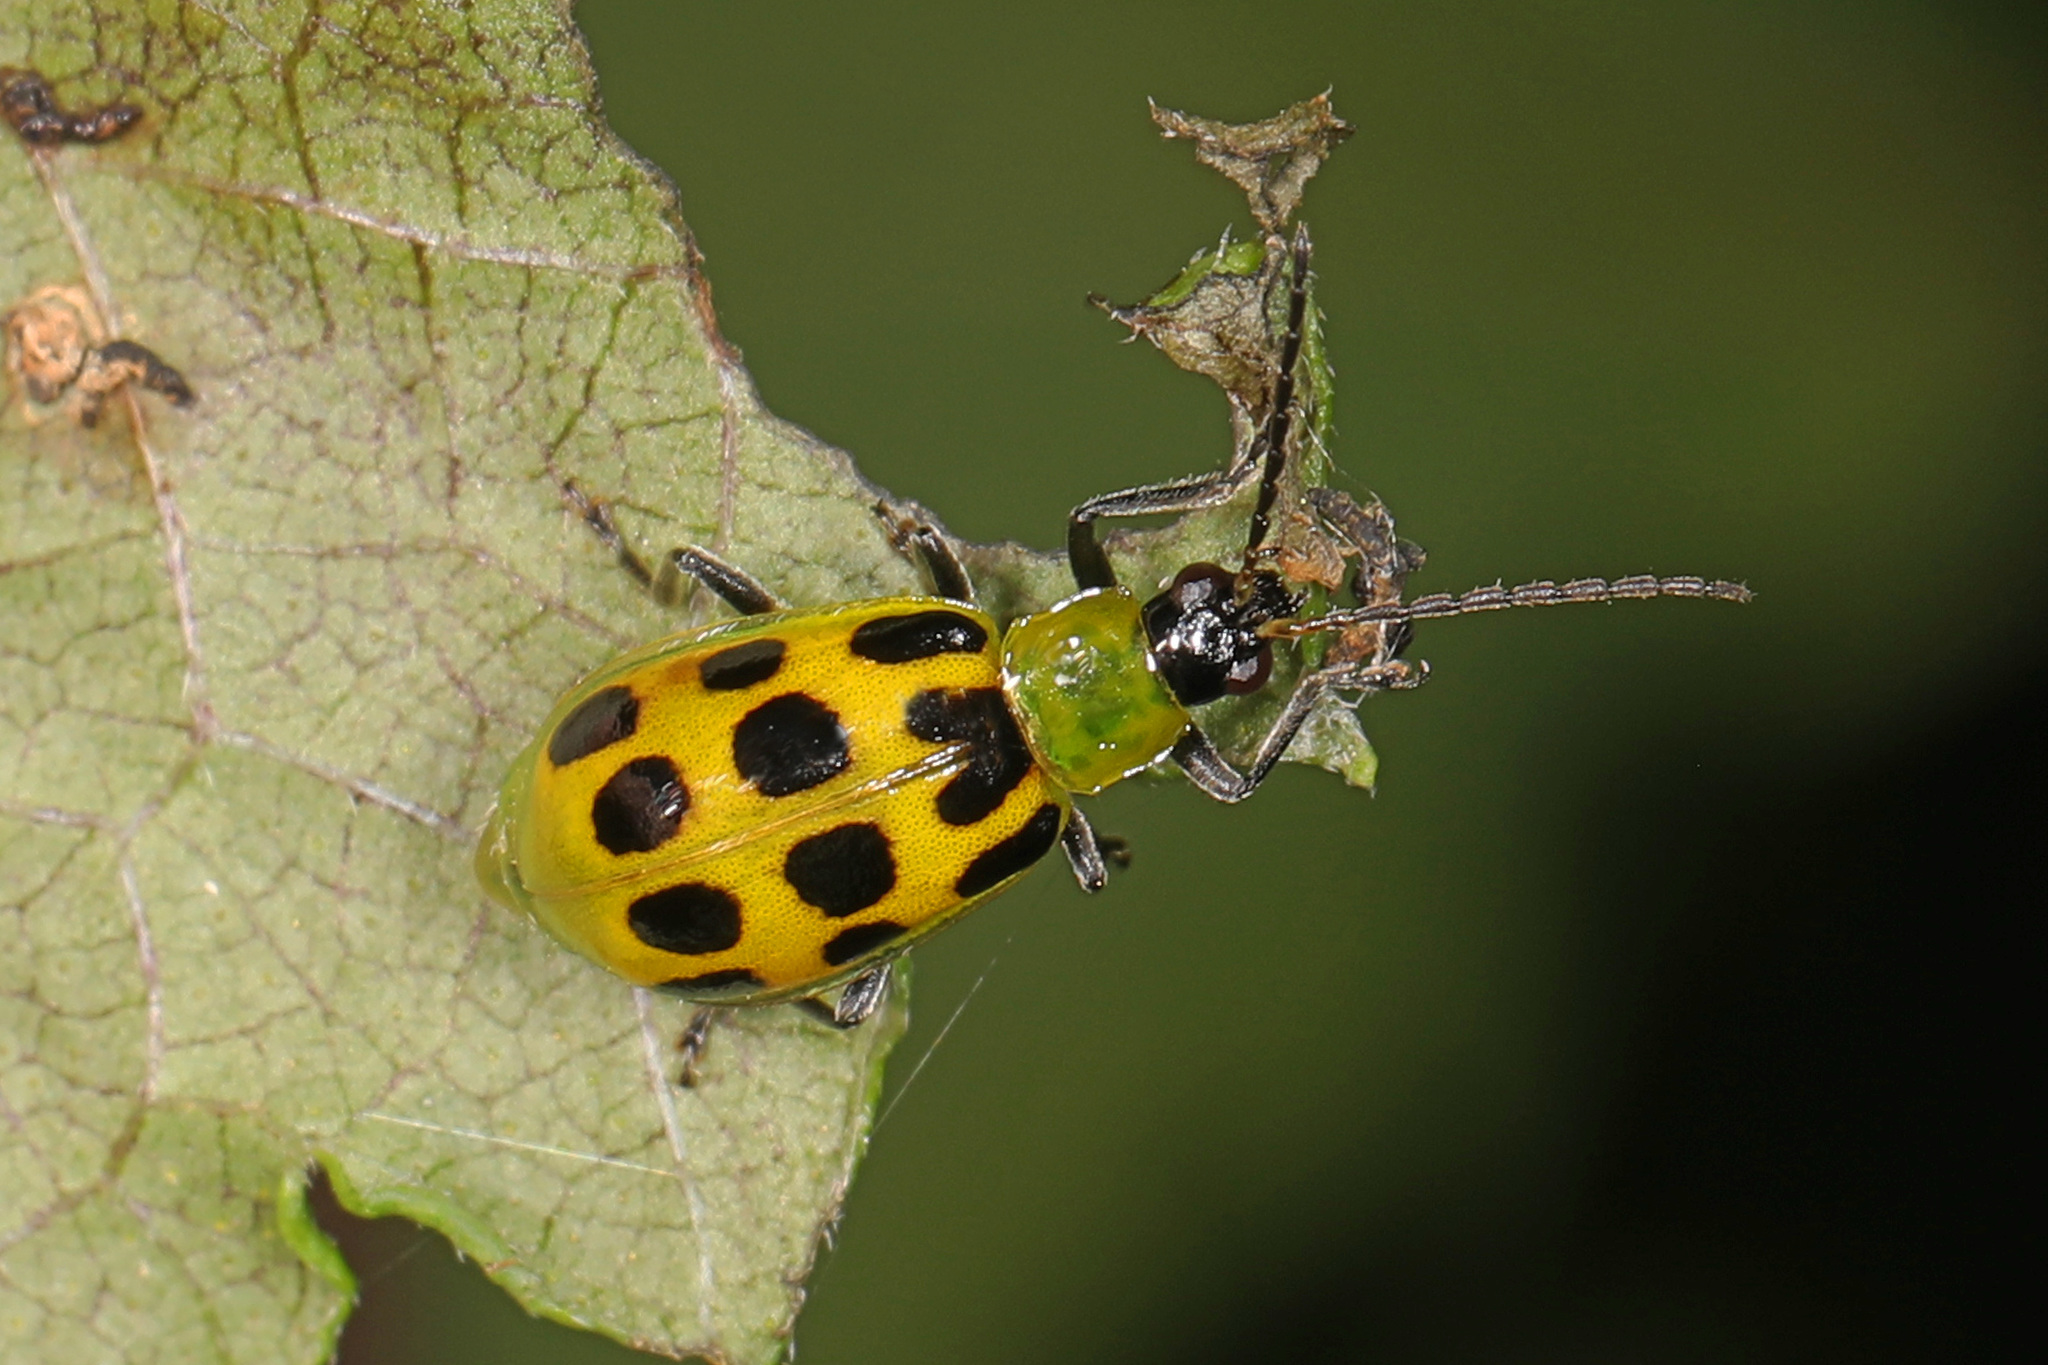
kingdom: Animalia
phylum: Arthropoda
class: Insecta
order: Coleoptera
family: Chrysomelidae
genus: Diabrotica
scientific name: Diabrotica undecimpunctata
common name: Spotted cucumber beetle
